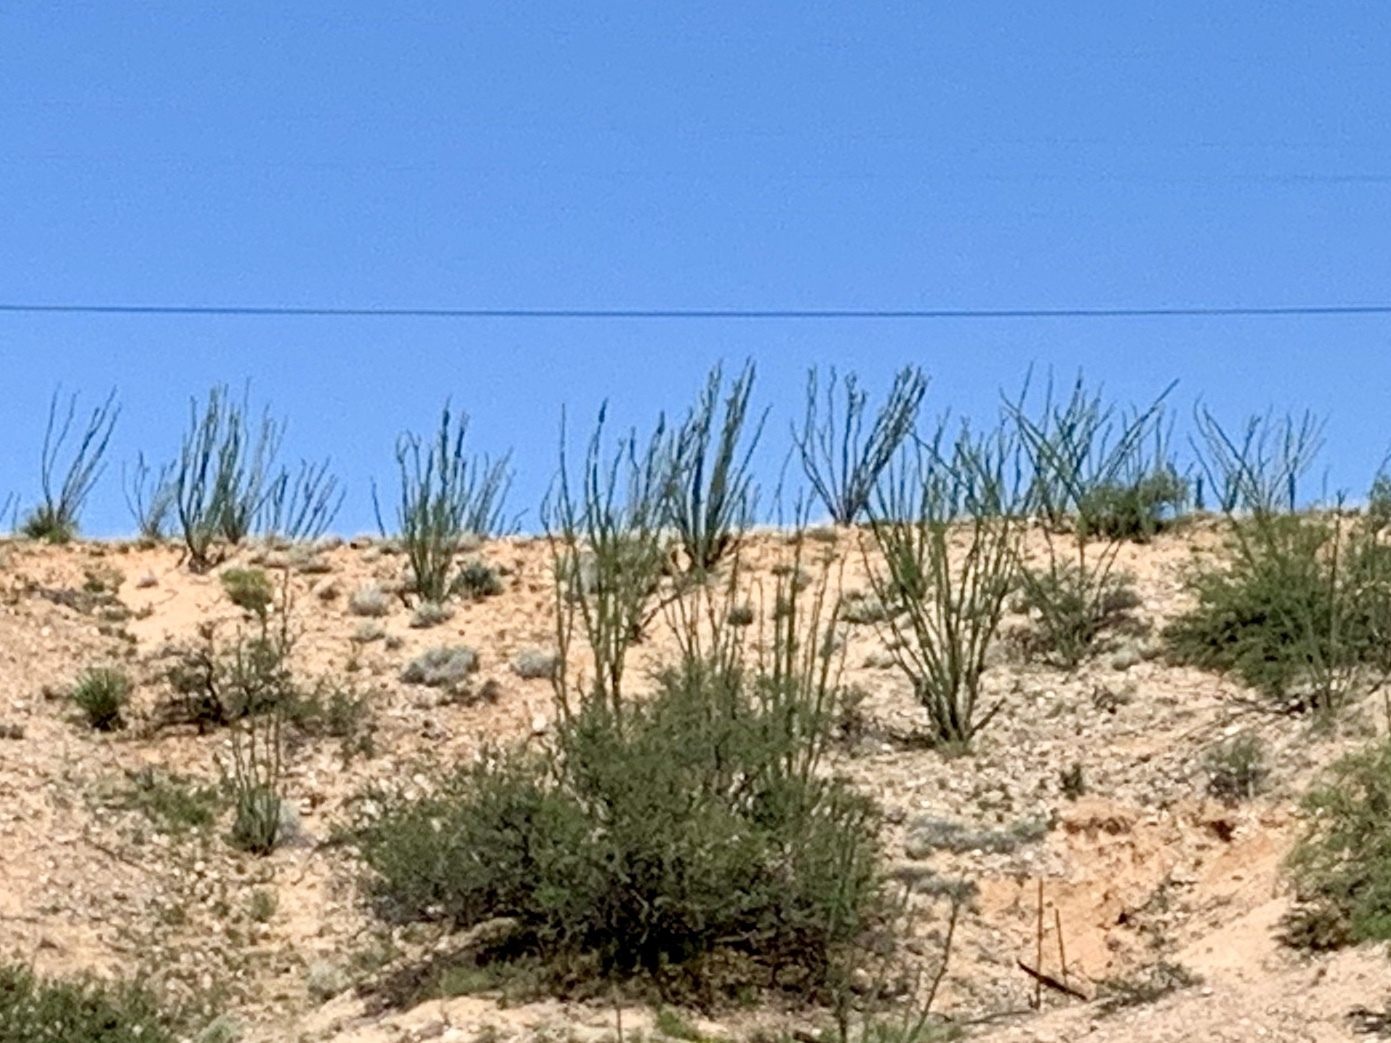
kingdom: Plantae
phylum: Tracheophyta
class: Magnoliopsida
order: Ericales
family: Fouquieriaceae
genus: Fouquieria
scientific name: Fouquieria splendens
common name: Vine-cactus
